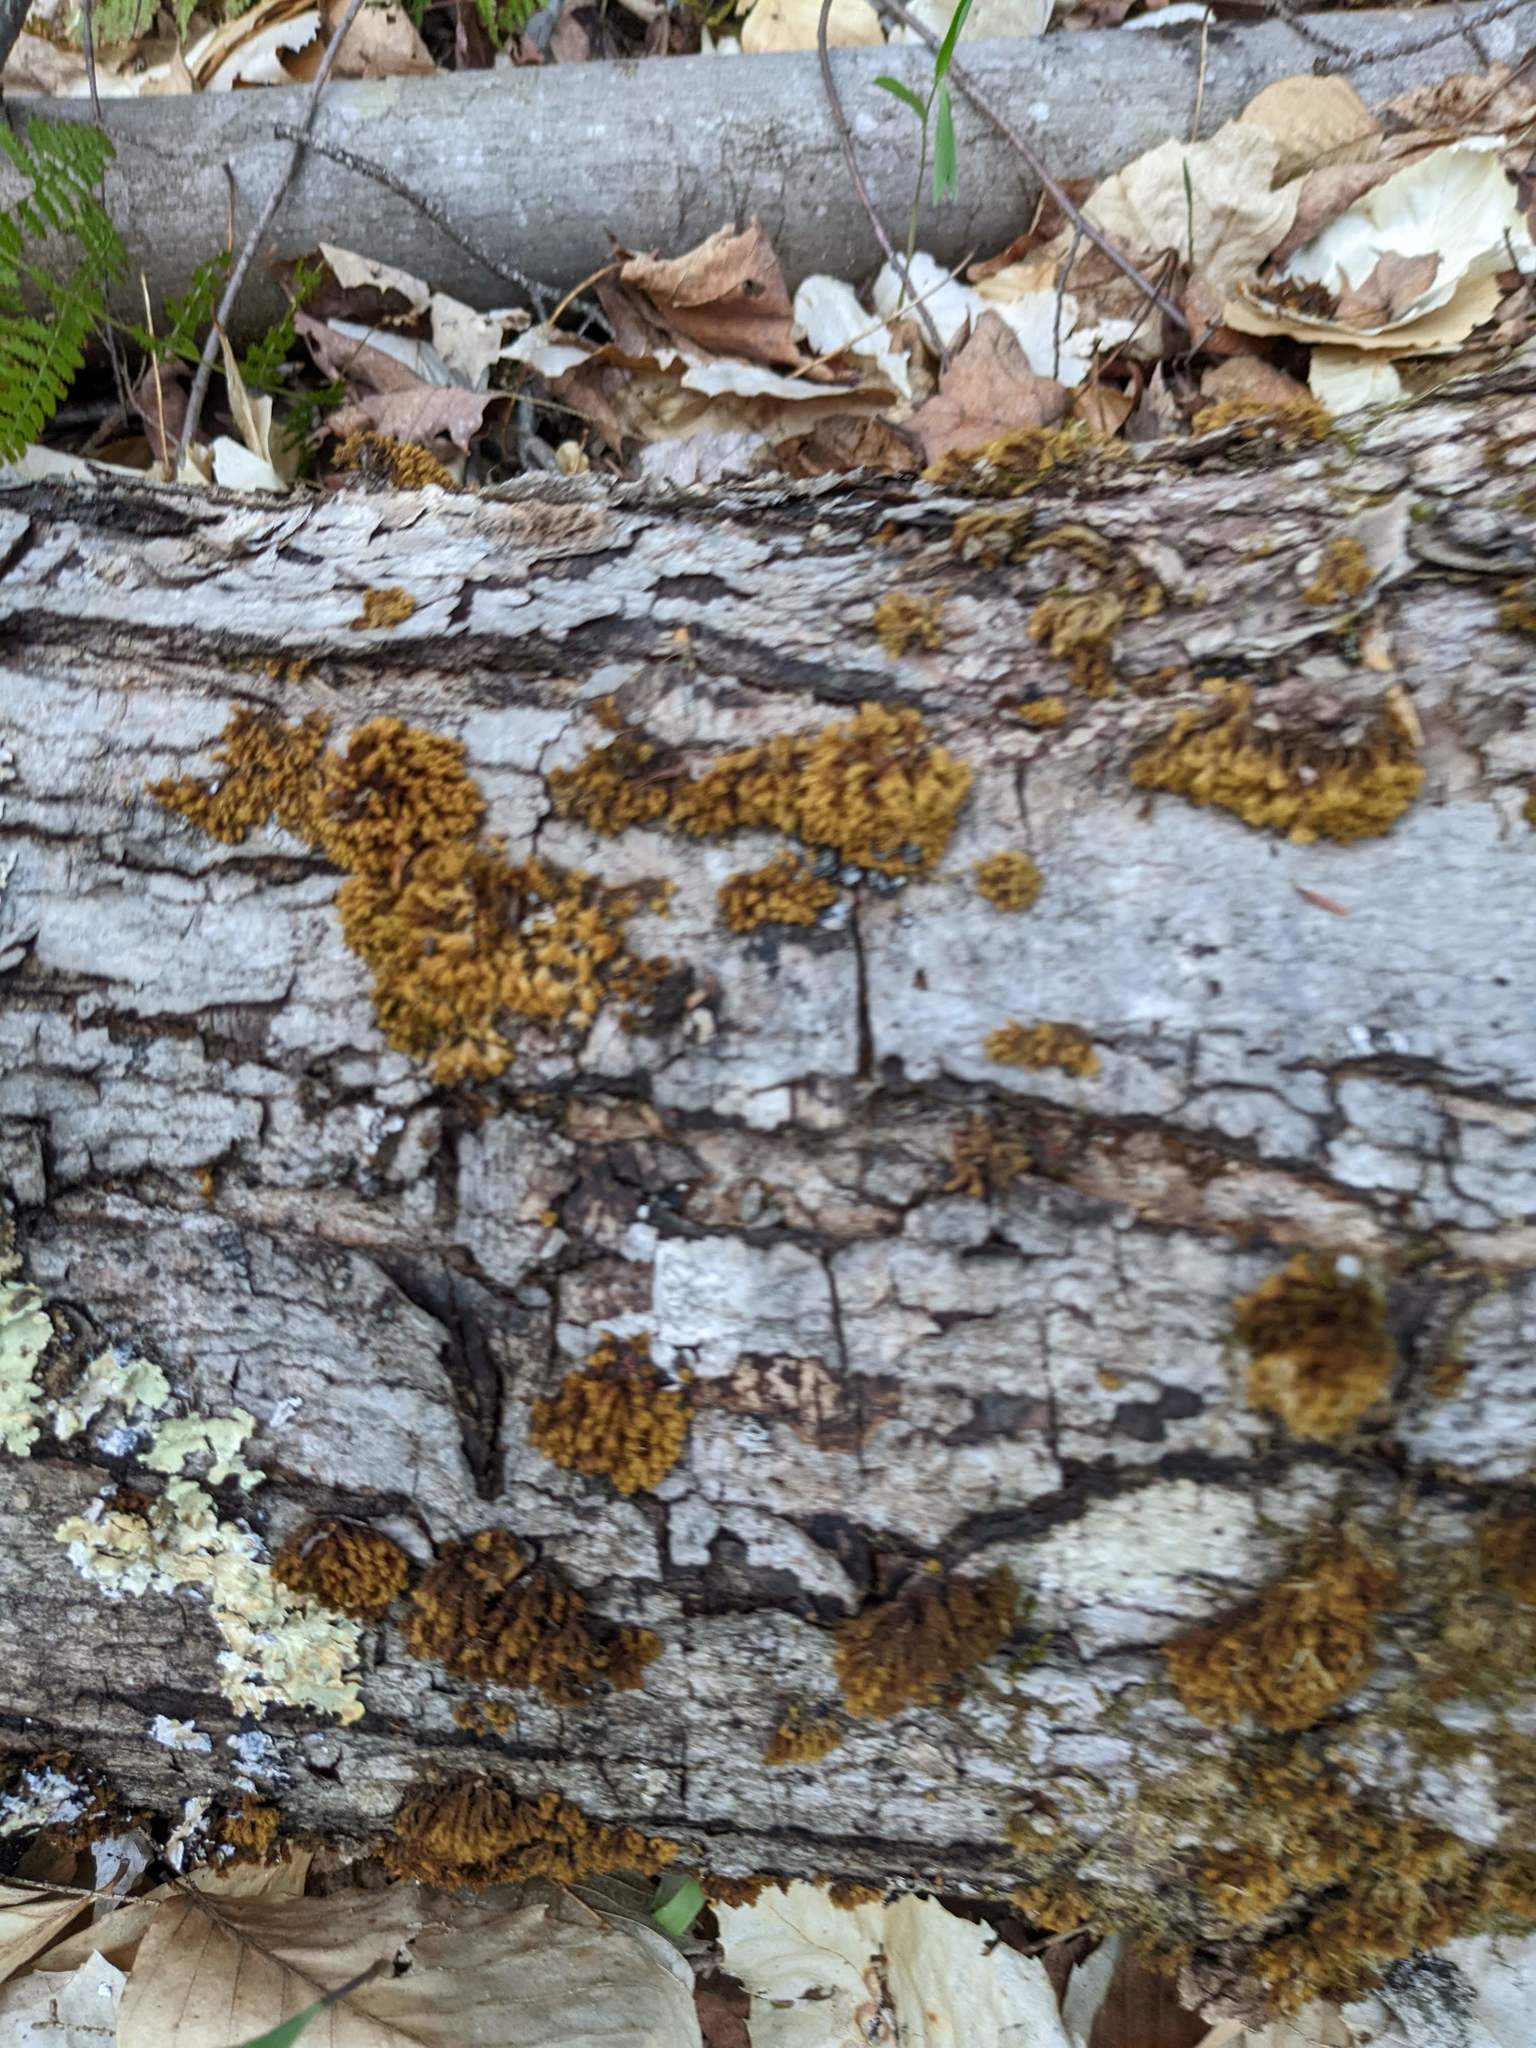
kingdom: Plantae
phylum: Bryophyta
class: Bryopsida
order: Orthotrichales
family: Orthotrichaceae
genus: Ulota
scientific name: Ulota crispa
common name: Crisped pincushion moss
